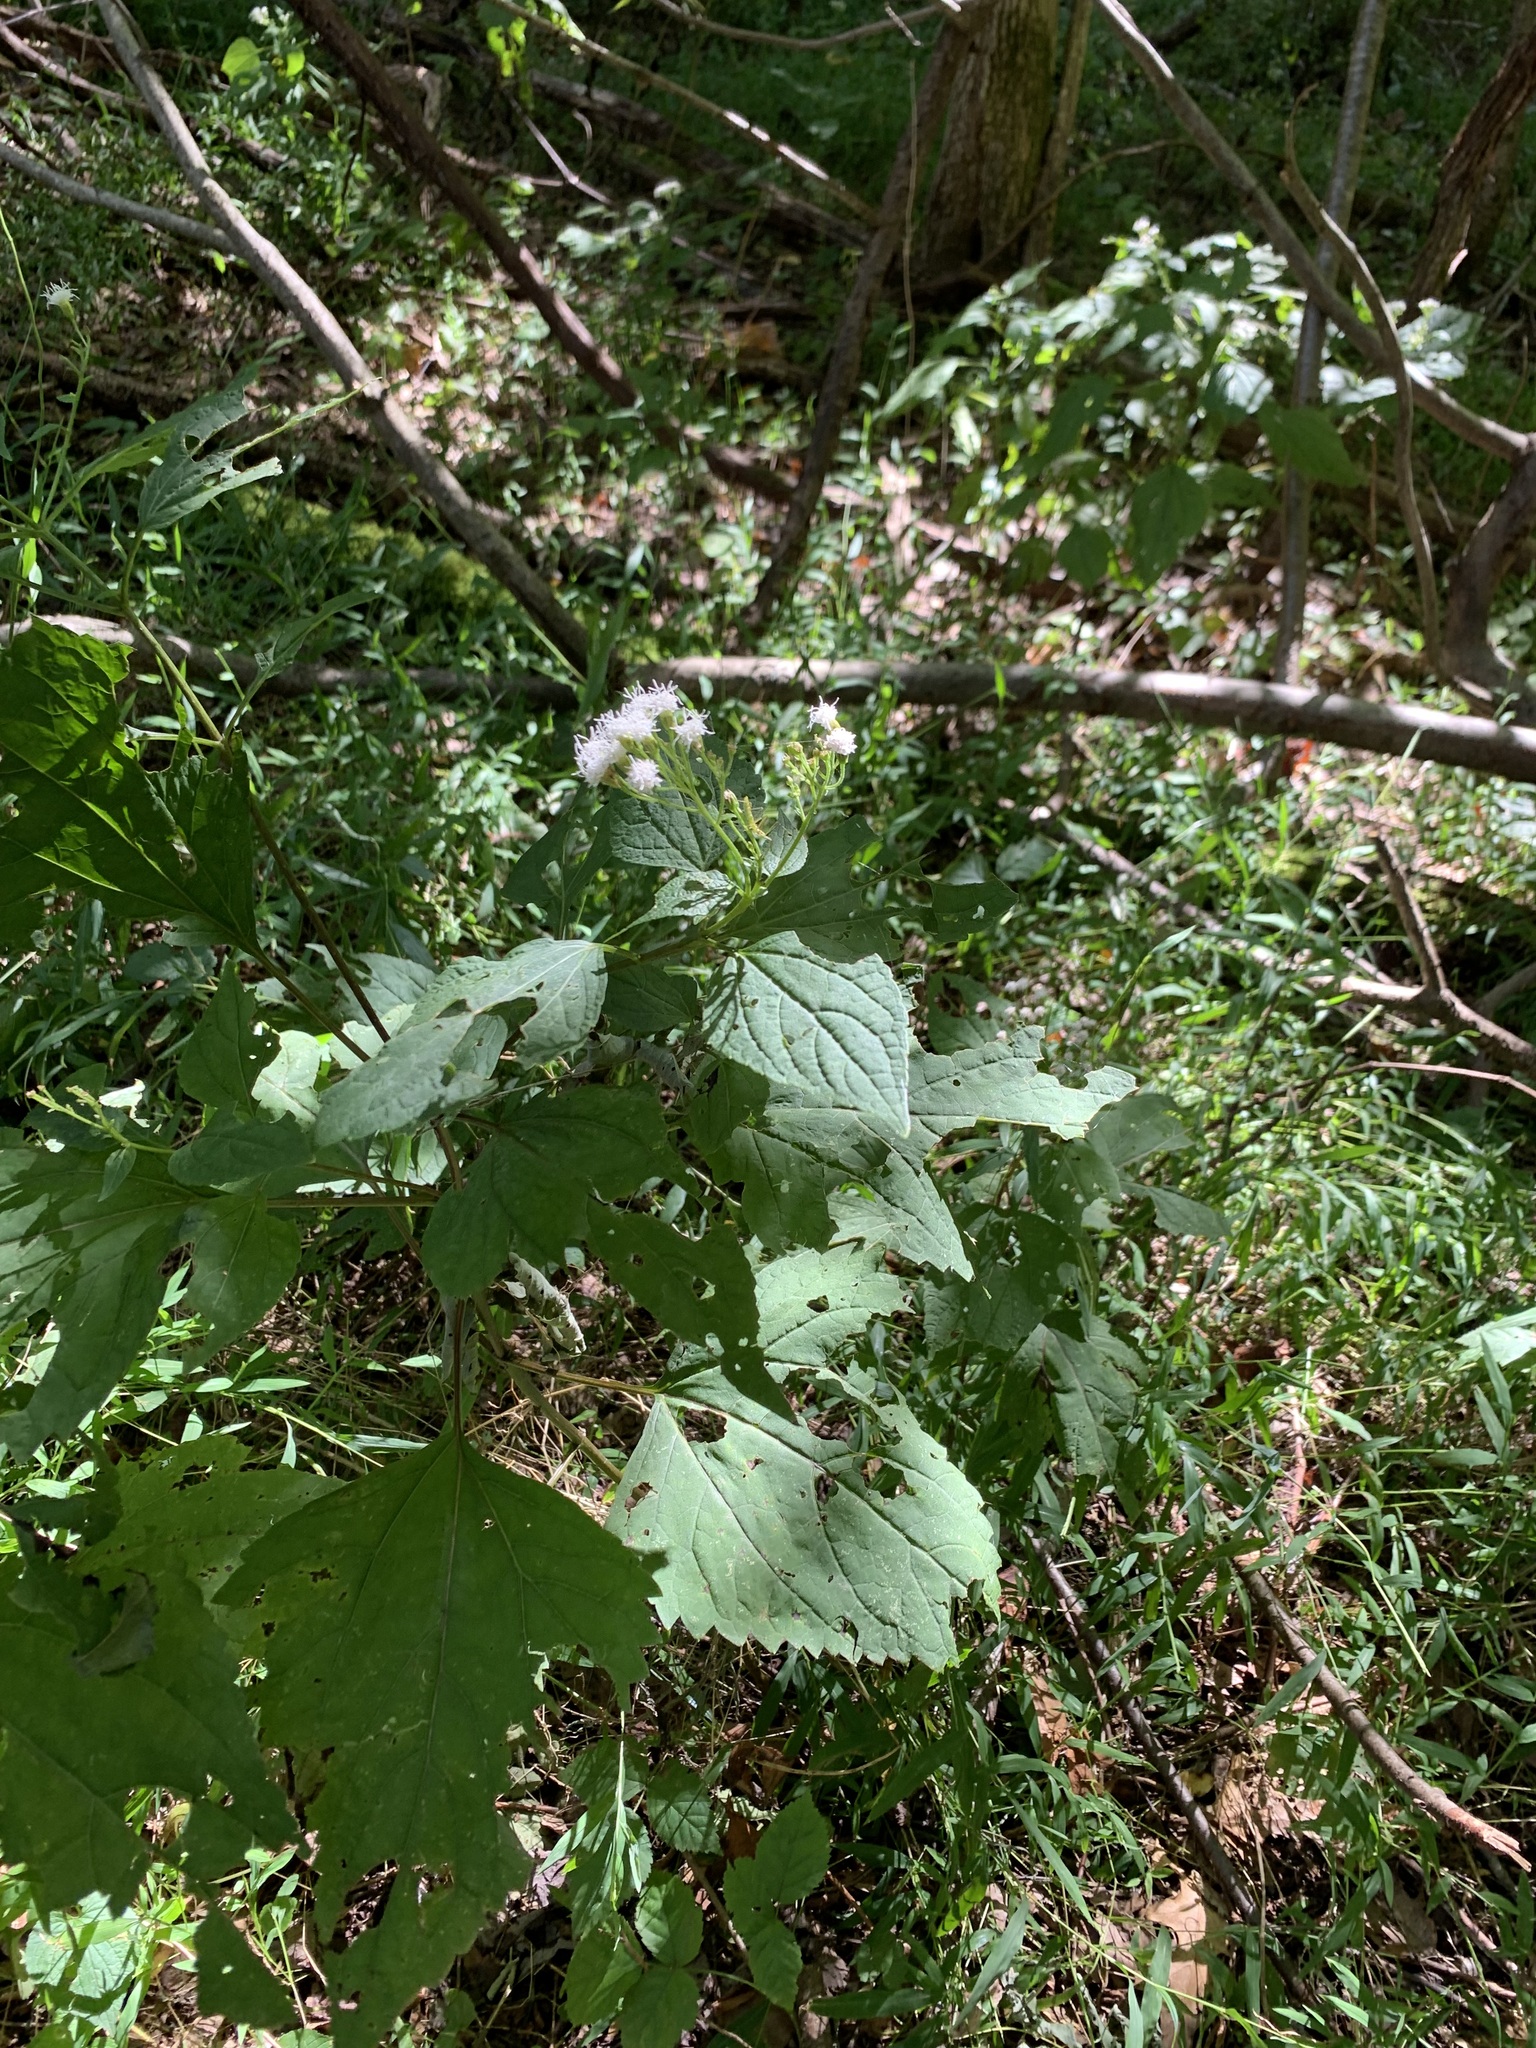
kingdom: Plantae
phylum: Tracheophyta
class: Magnoliopsida
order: Asterales
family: Asteraceae
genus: Ageratina
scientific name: Ageratina altissima
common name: White snakeroot
